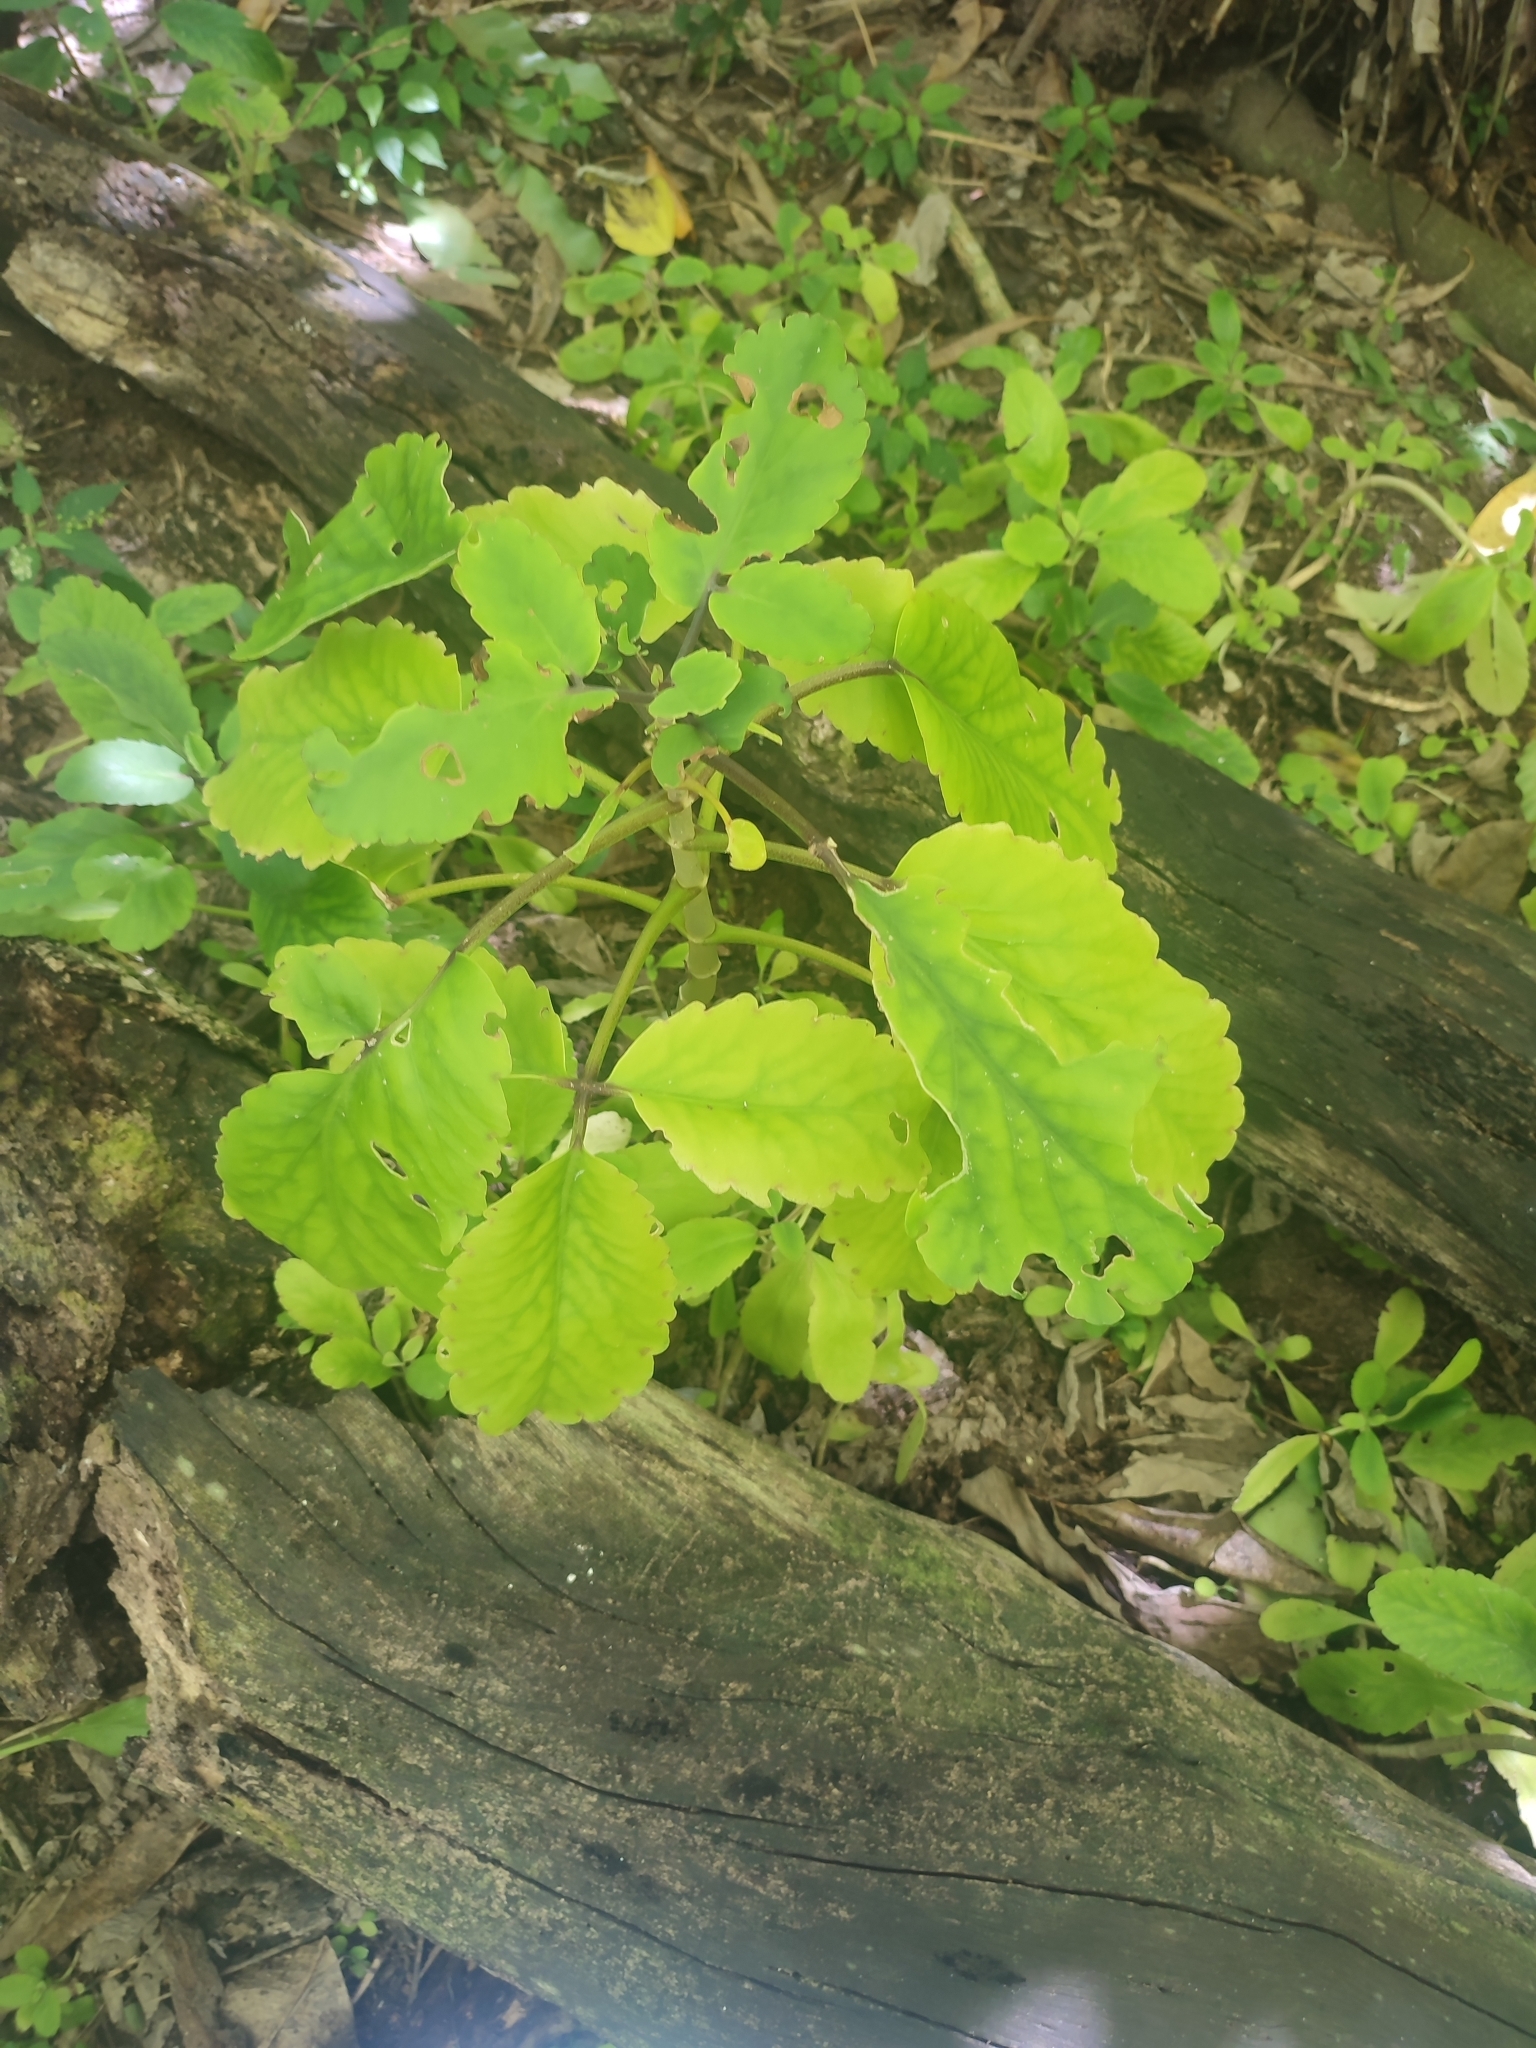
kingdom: Plantae
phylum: Tracheophyta
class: Magnoliopsida
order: Saxifragales
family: Crassulaceae
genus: Kalanchoe
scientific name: Kalanchoe pinnata
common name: Cathedral bells
